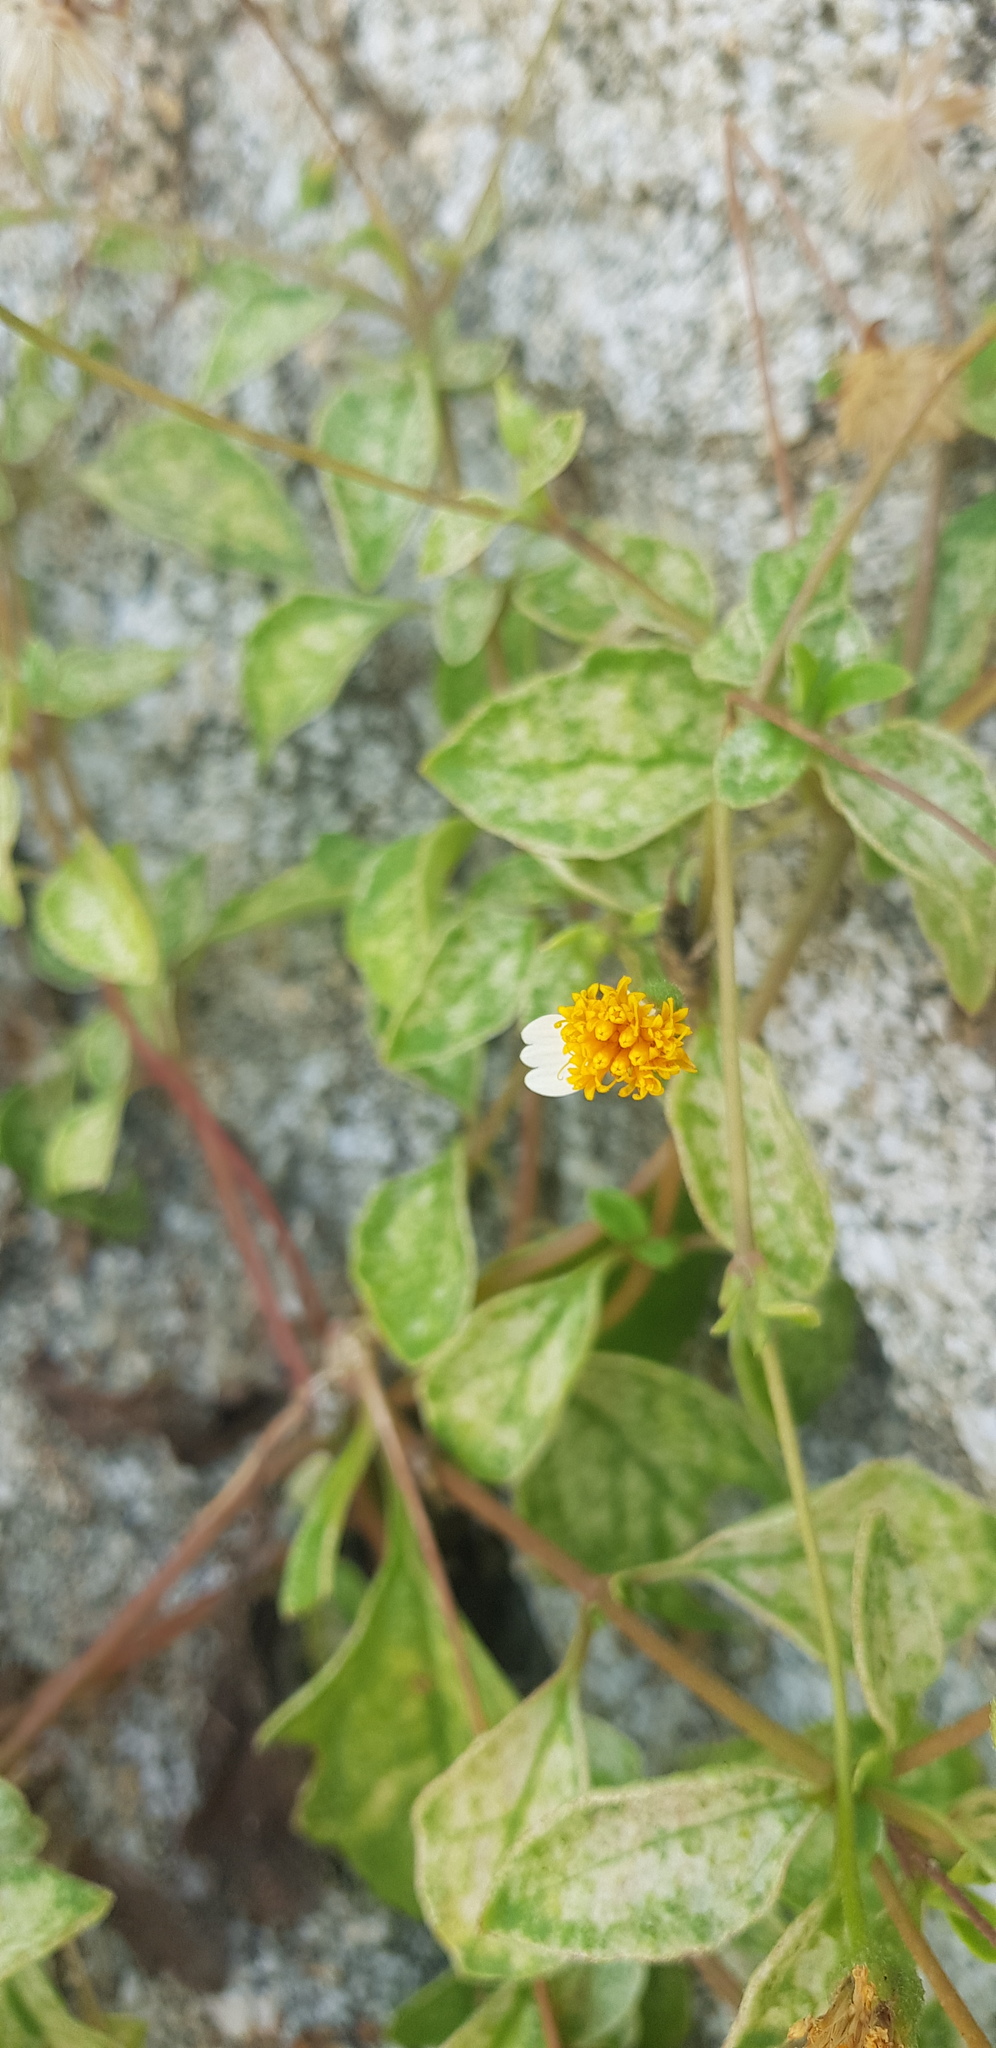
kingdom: Plantae
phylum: Tracheophyta
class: Magnoliopsida
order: Asterales
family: Asteraceae
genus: Tridax
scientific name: Tridax platyphylla
